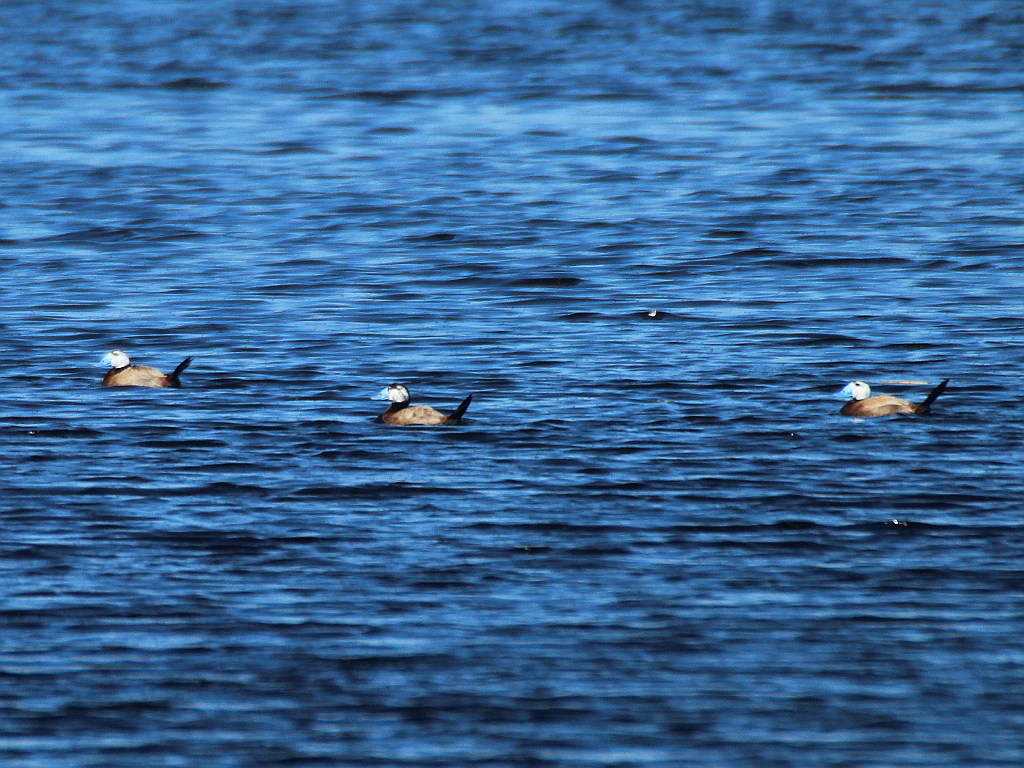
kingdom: Animalia
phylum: Chordata
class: Aves
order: Anseriformes
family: Anatidae
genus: Oxyura
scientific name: Oxyura leucocephala
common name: White-headed duck
